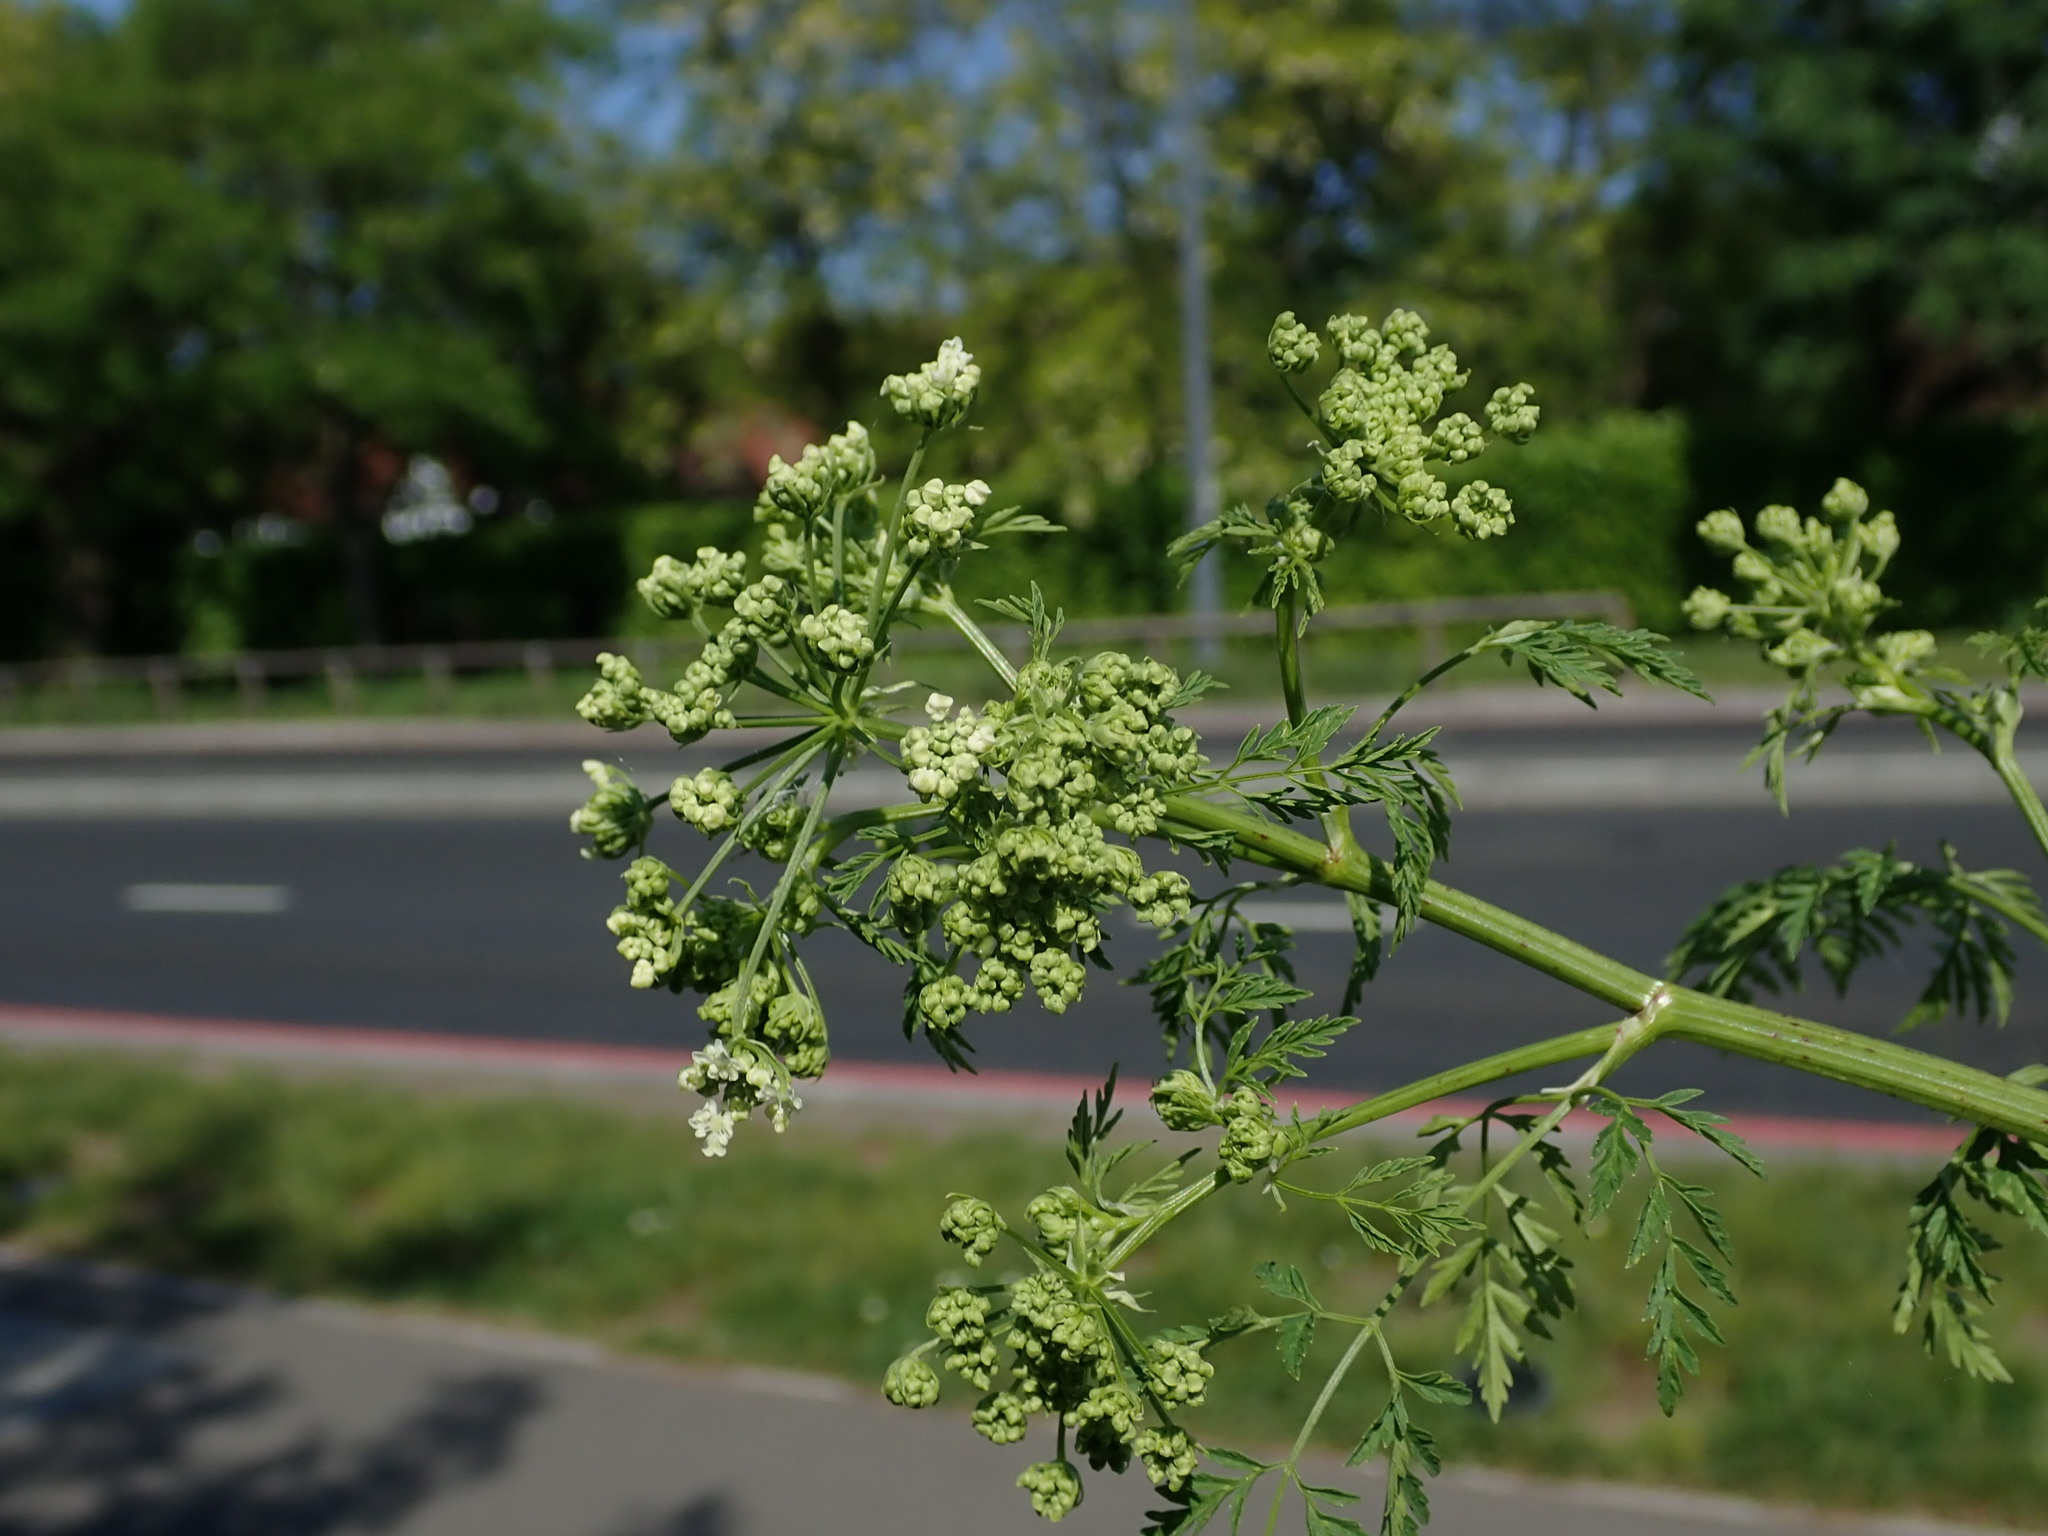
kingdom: Plantae
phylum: Tracheophyta
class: Magnoliopsida
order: Apiales
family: Apiaceae
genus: Conium
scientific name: Conium maculatum
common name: Hemlock
